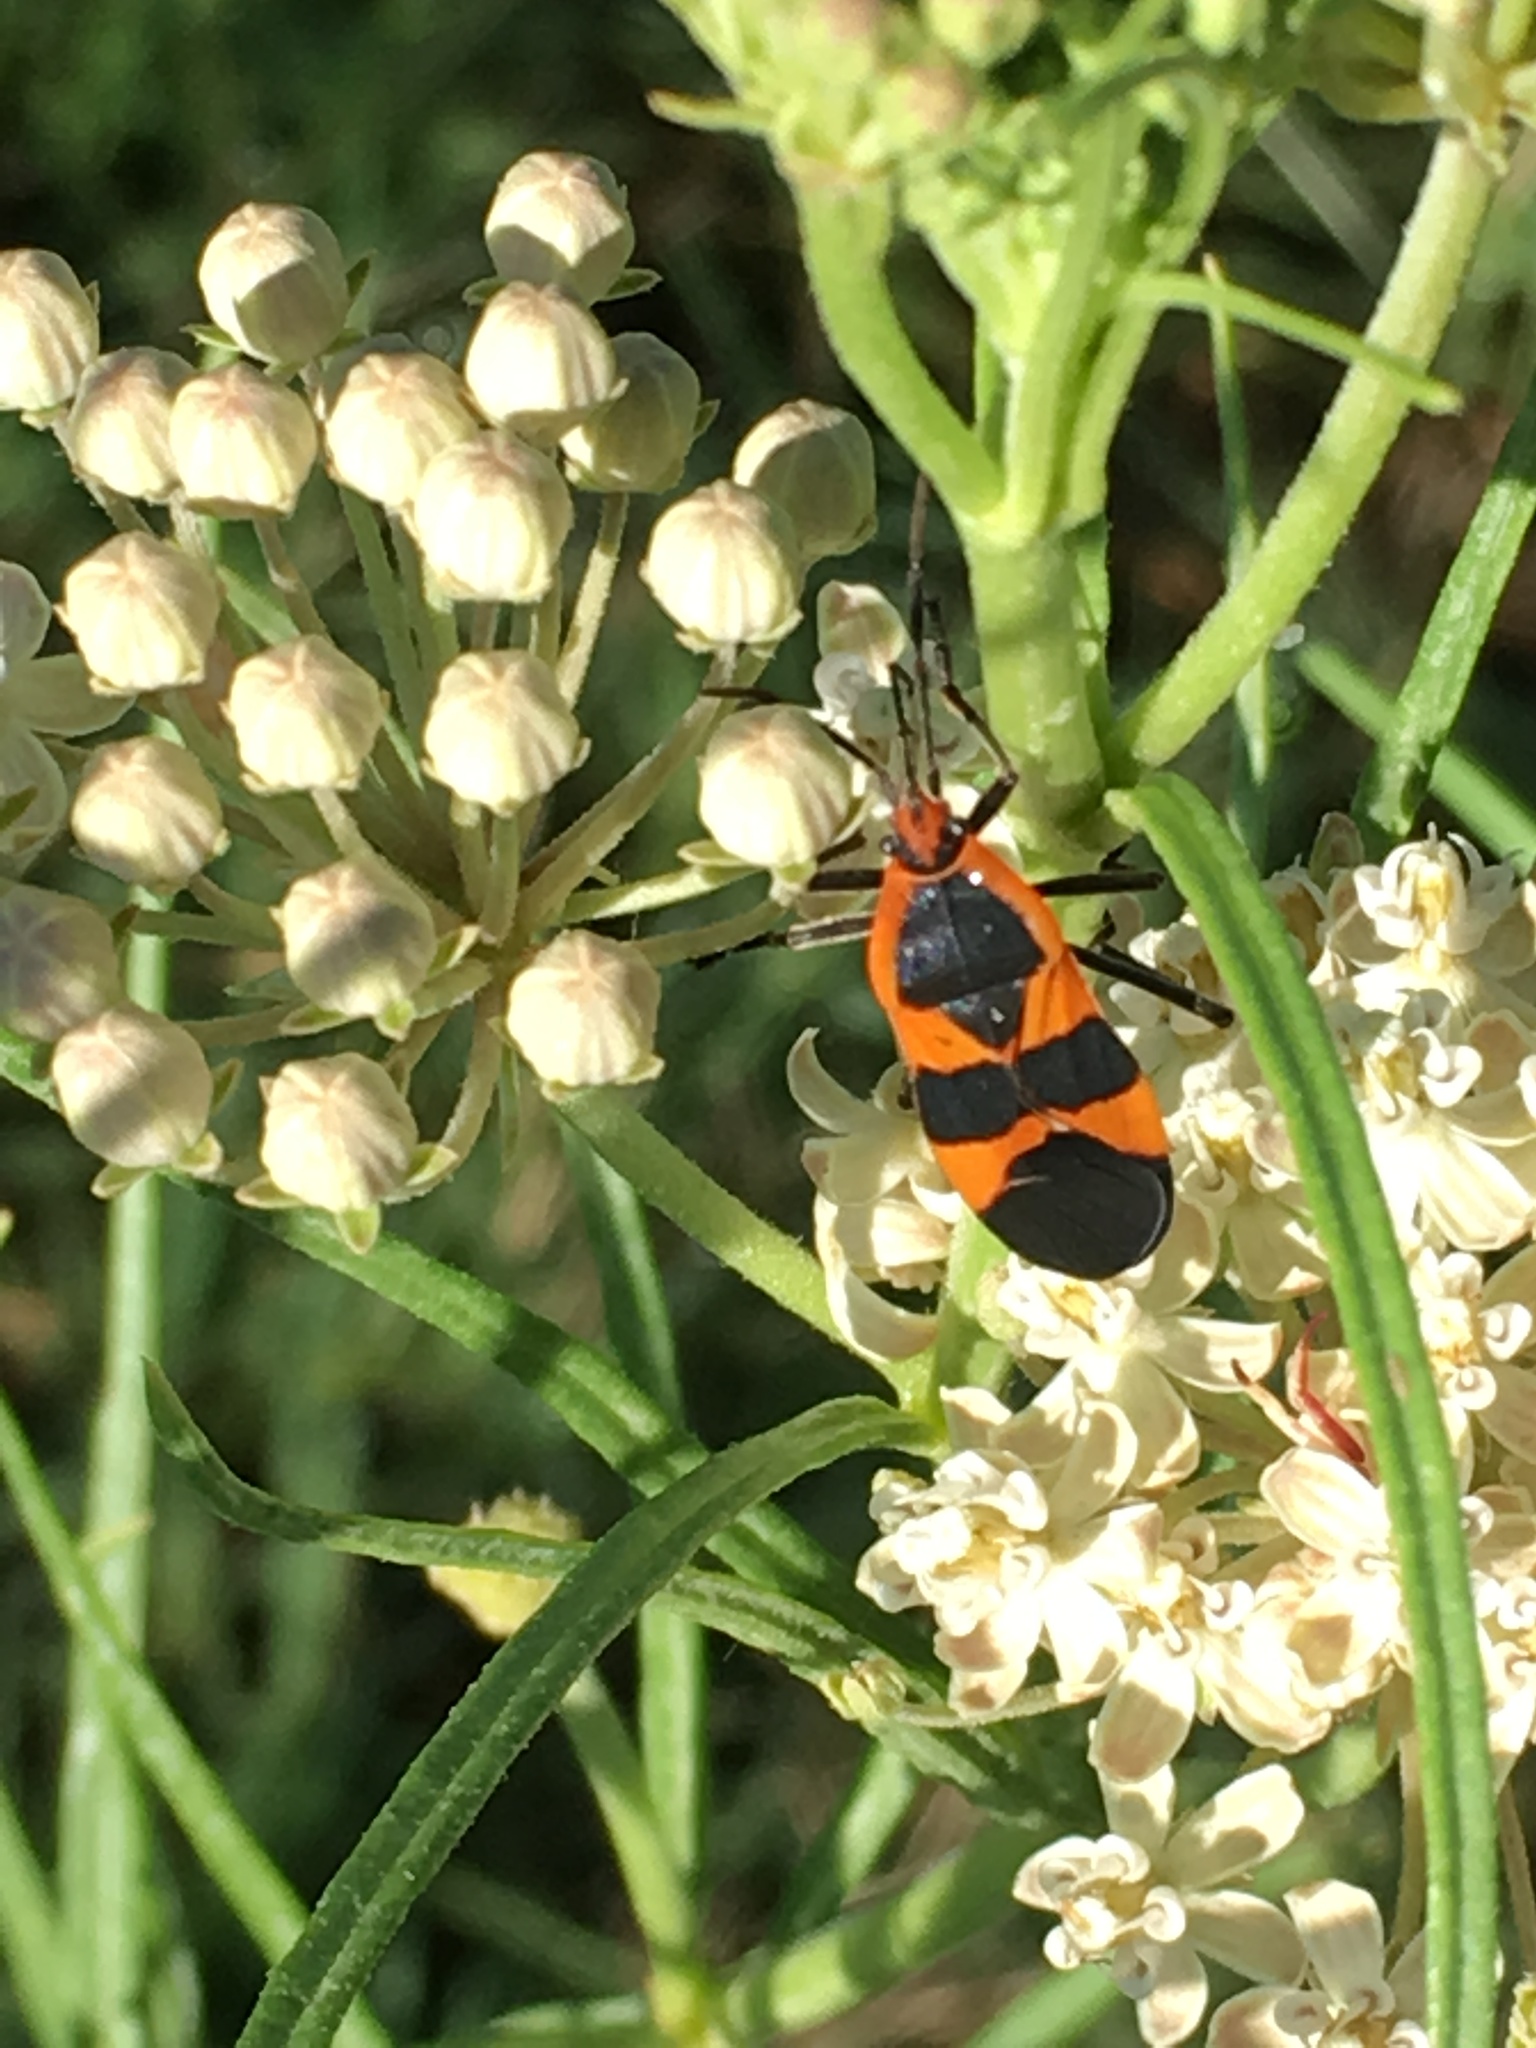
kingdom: Animalia
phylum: Arthropoda
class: Insecta
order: Hemiptera
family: Lygaeidae
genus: Oncopeltus
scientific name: Oncopeltus fasciatus
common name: Large milkweed bug
